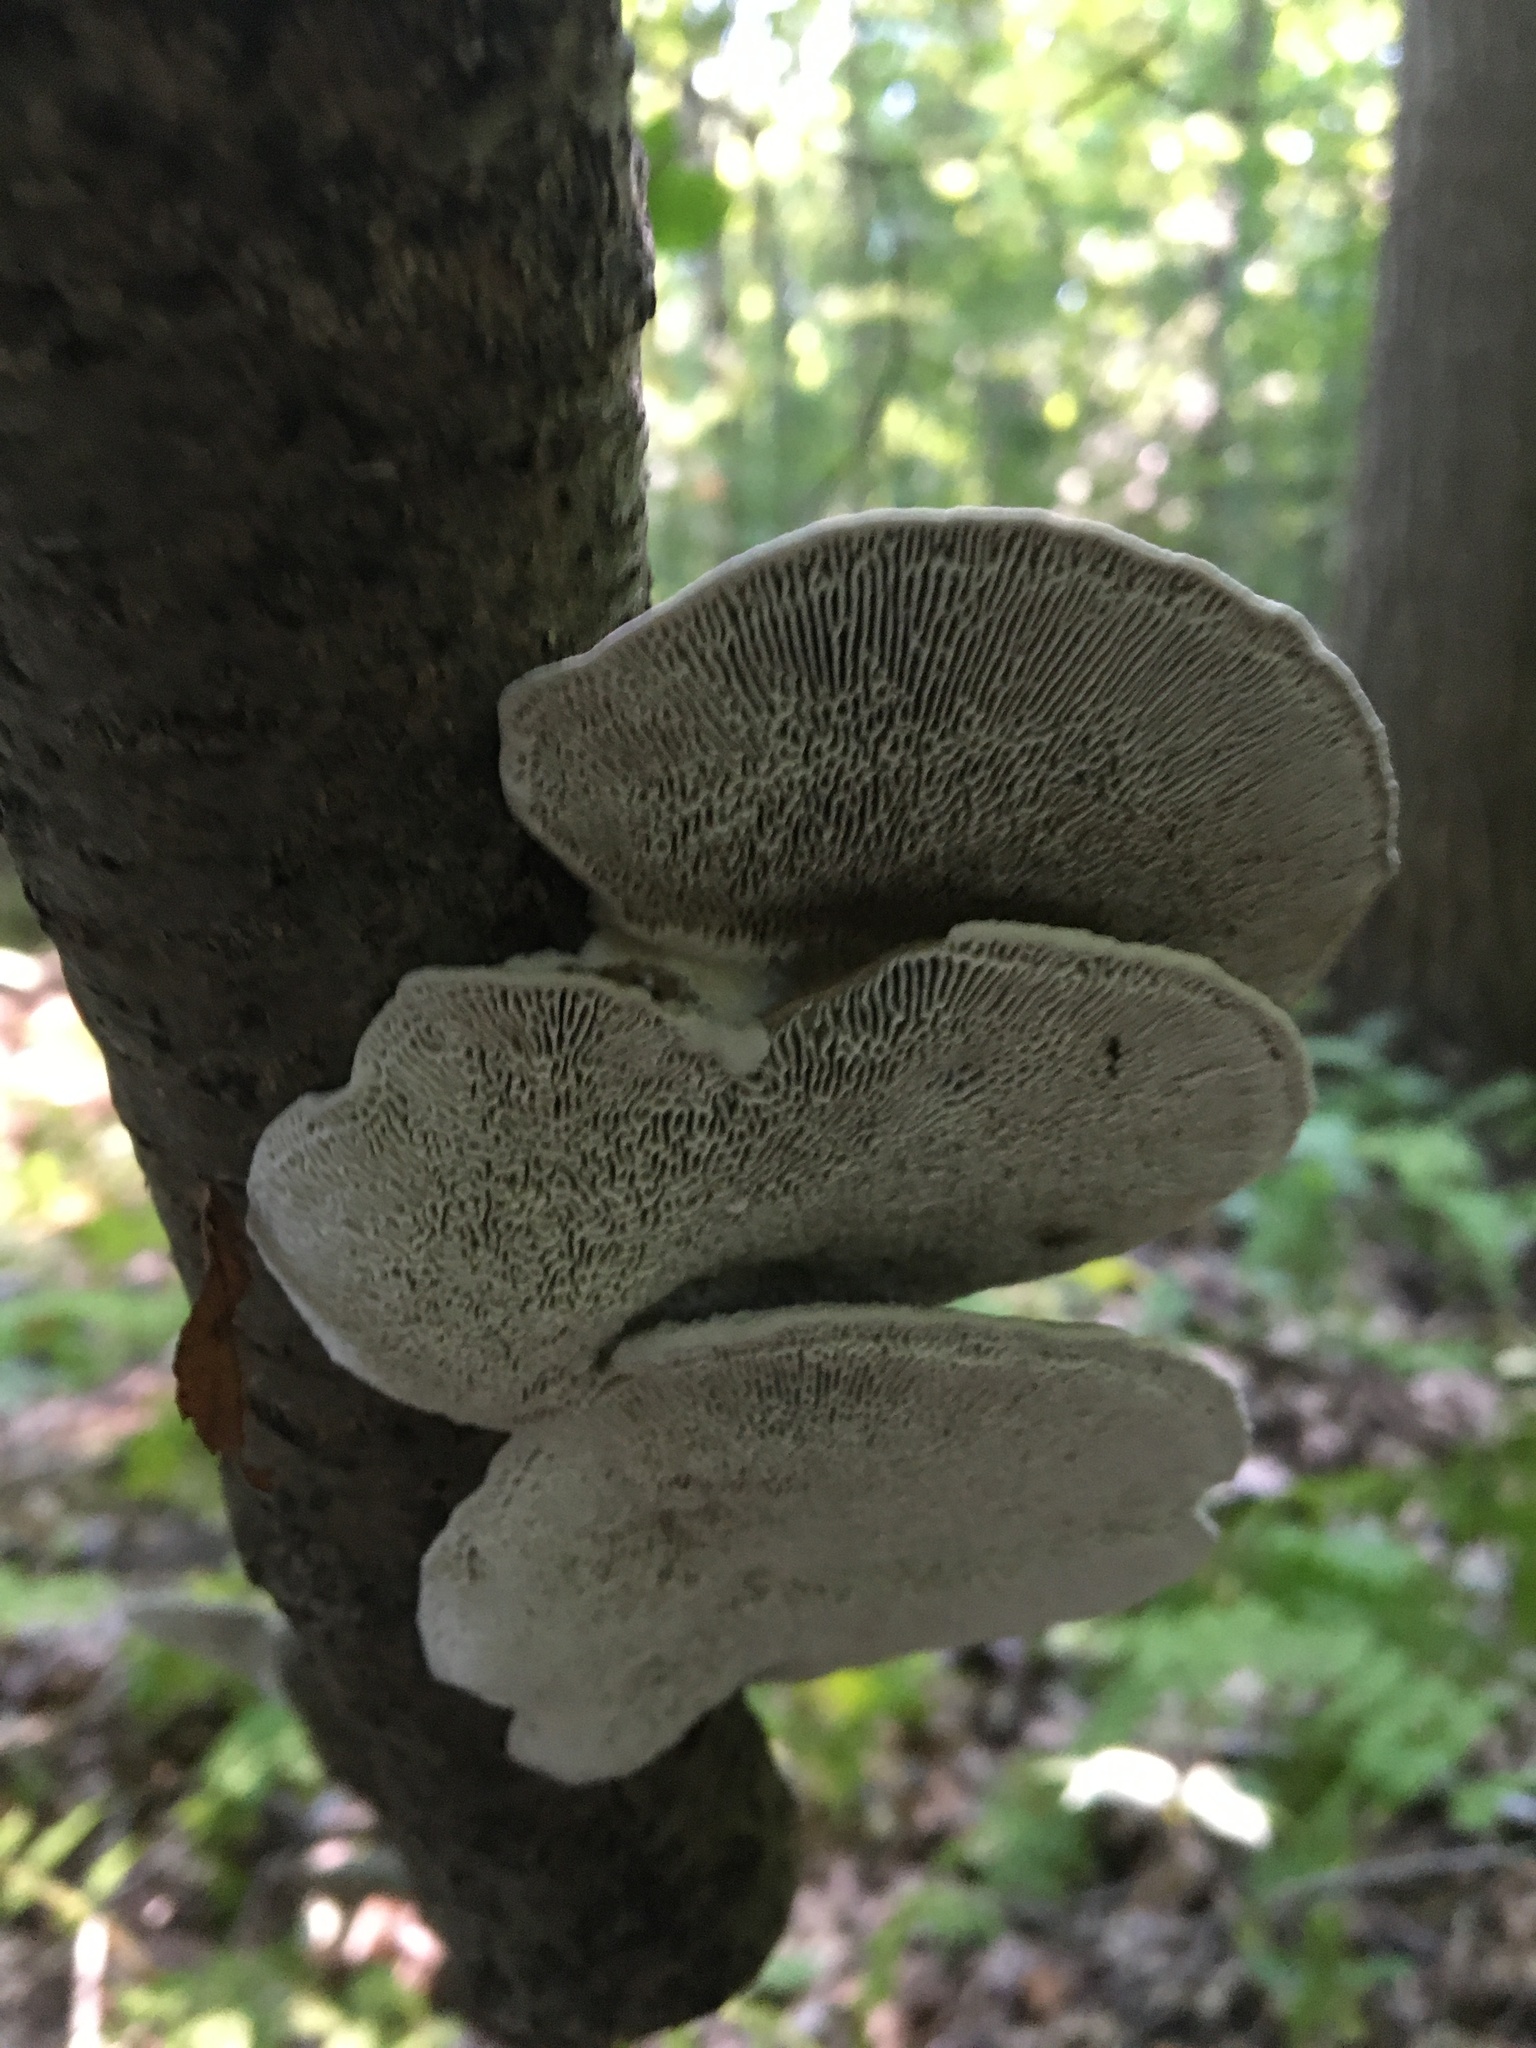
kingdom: Fungi
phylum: Basidiomycota
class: Agaricomycetes
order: Polyporales
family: Polyporaceae
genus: Daedaleopsis
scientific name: Daedaleopsis confragosa
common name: Blushing bracket
